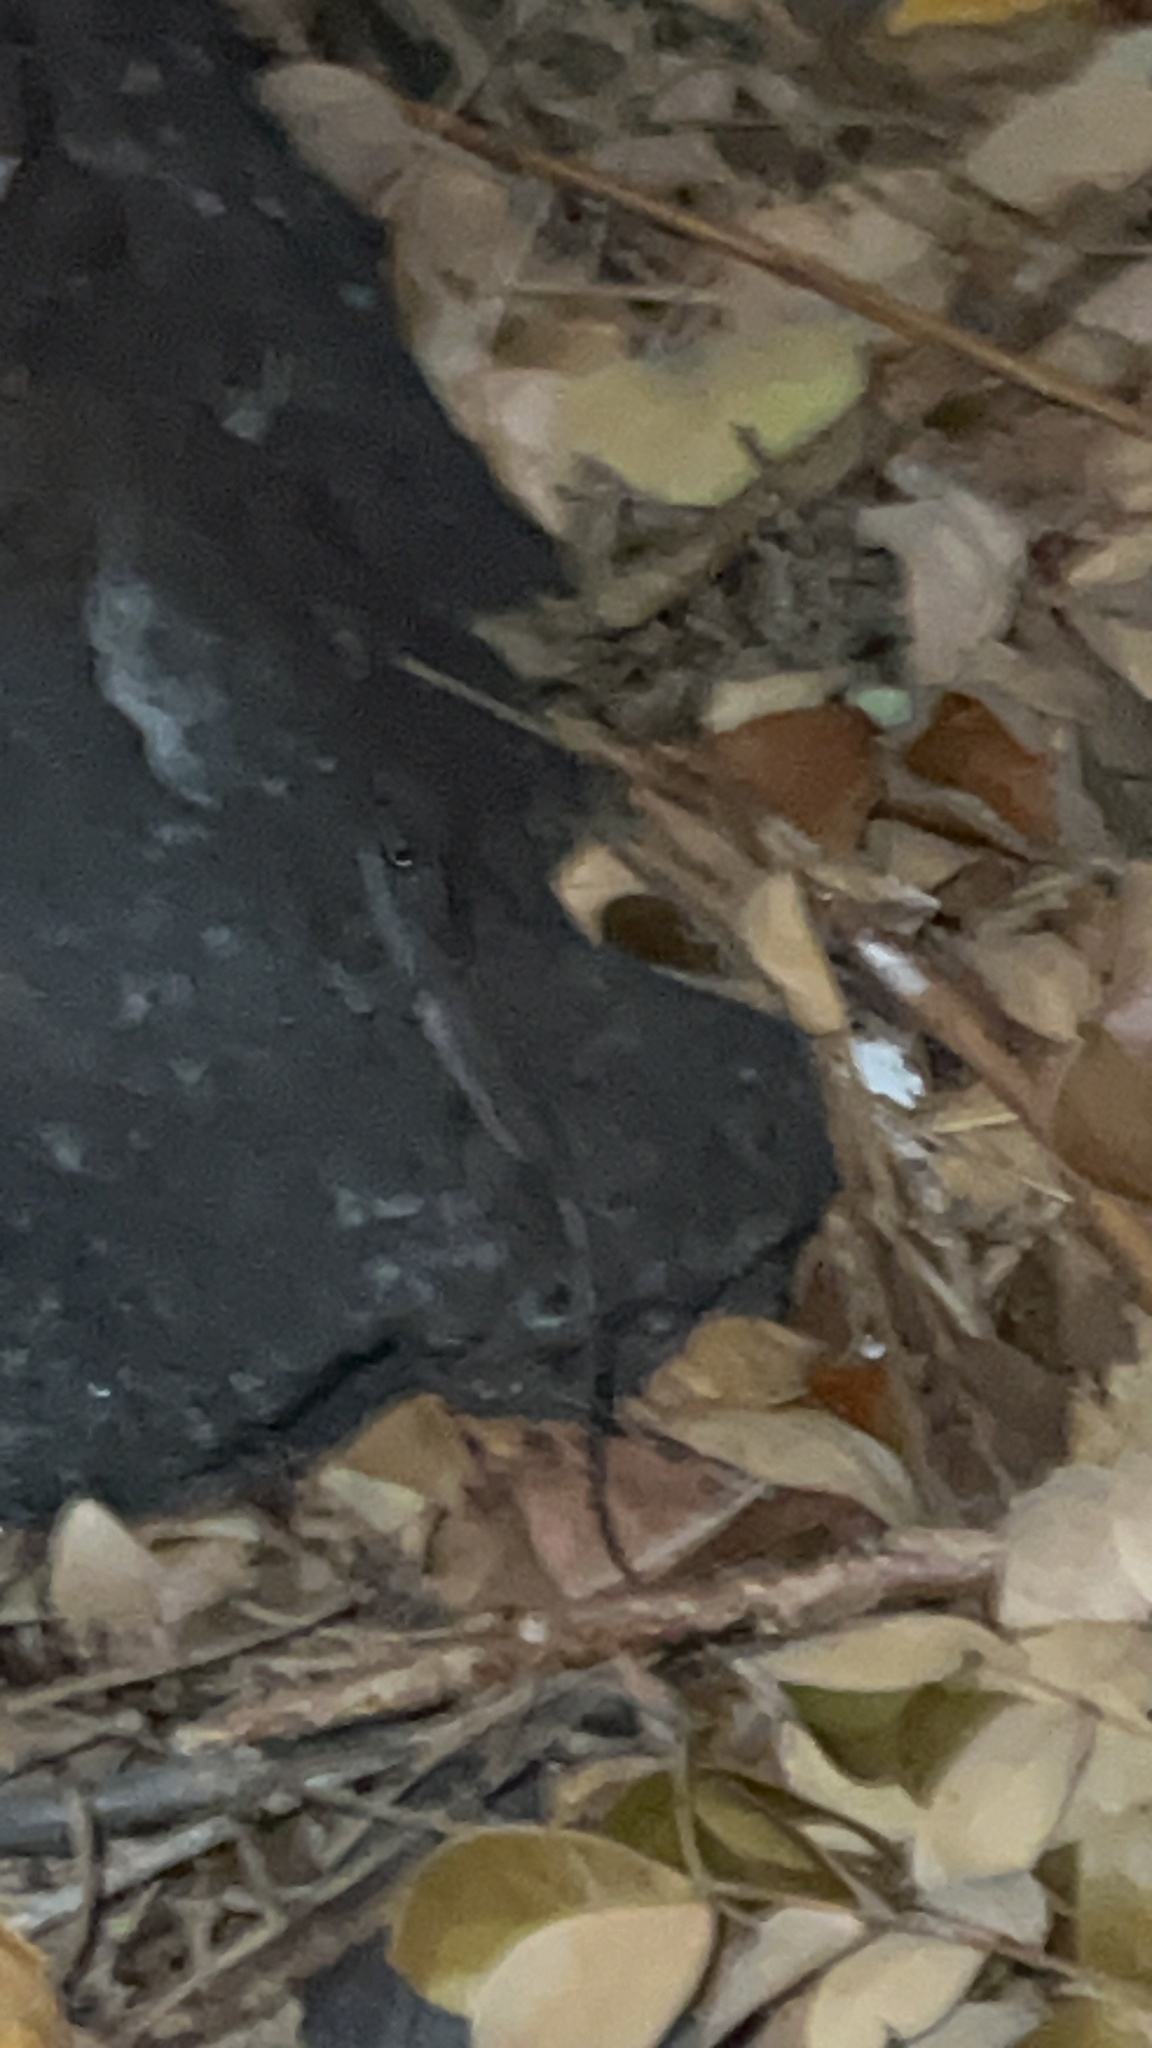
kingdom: Animalia
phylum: Chordata
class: Squamata
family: Dactyloidae
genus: Anolis
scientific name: Anolis carolinensis
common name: Green anole
